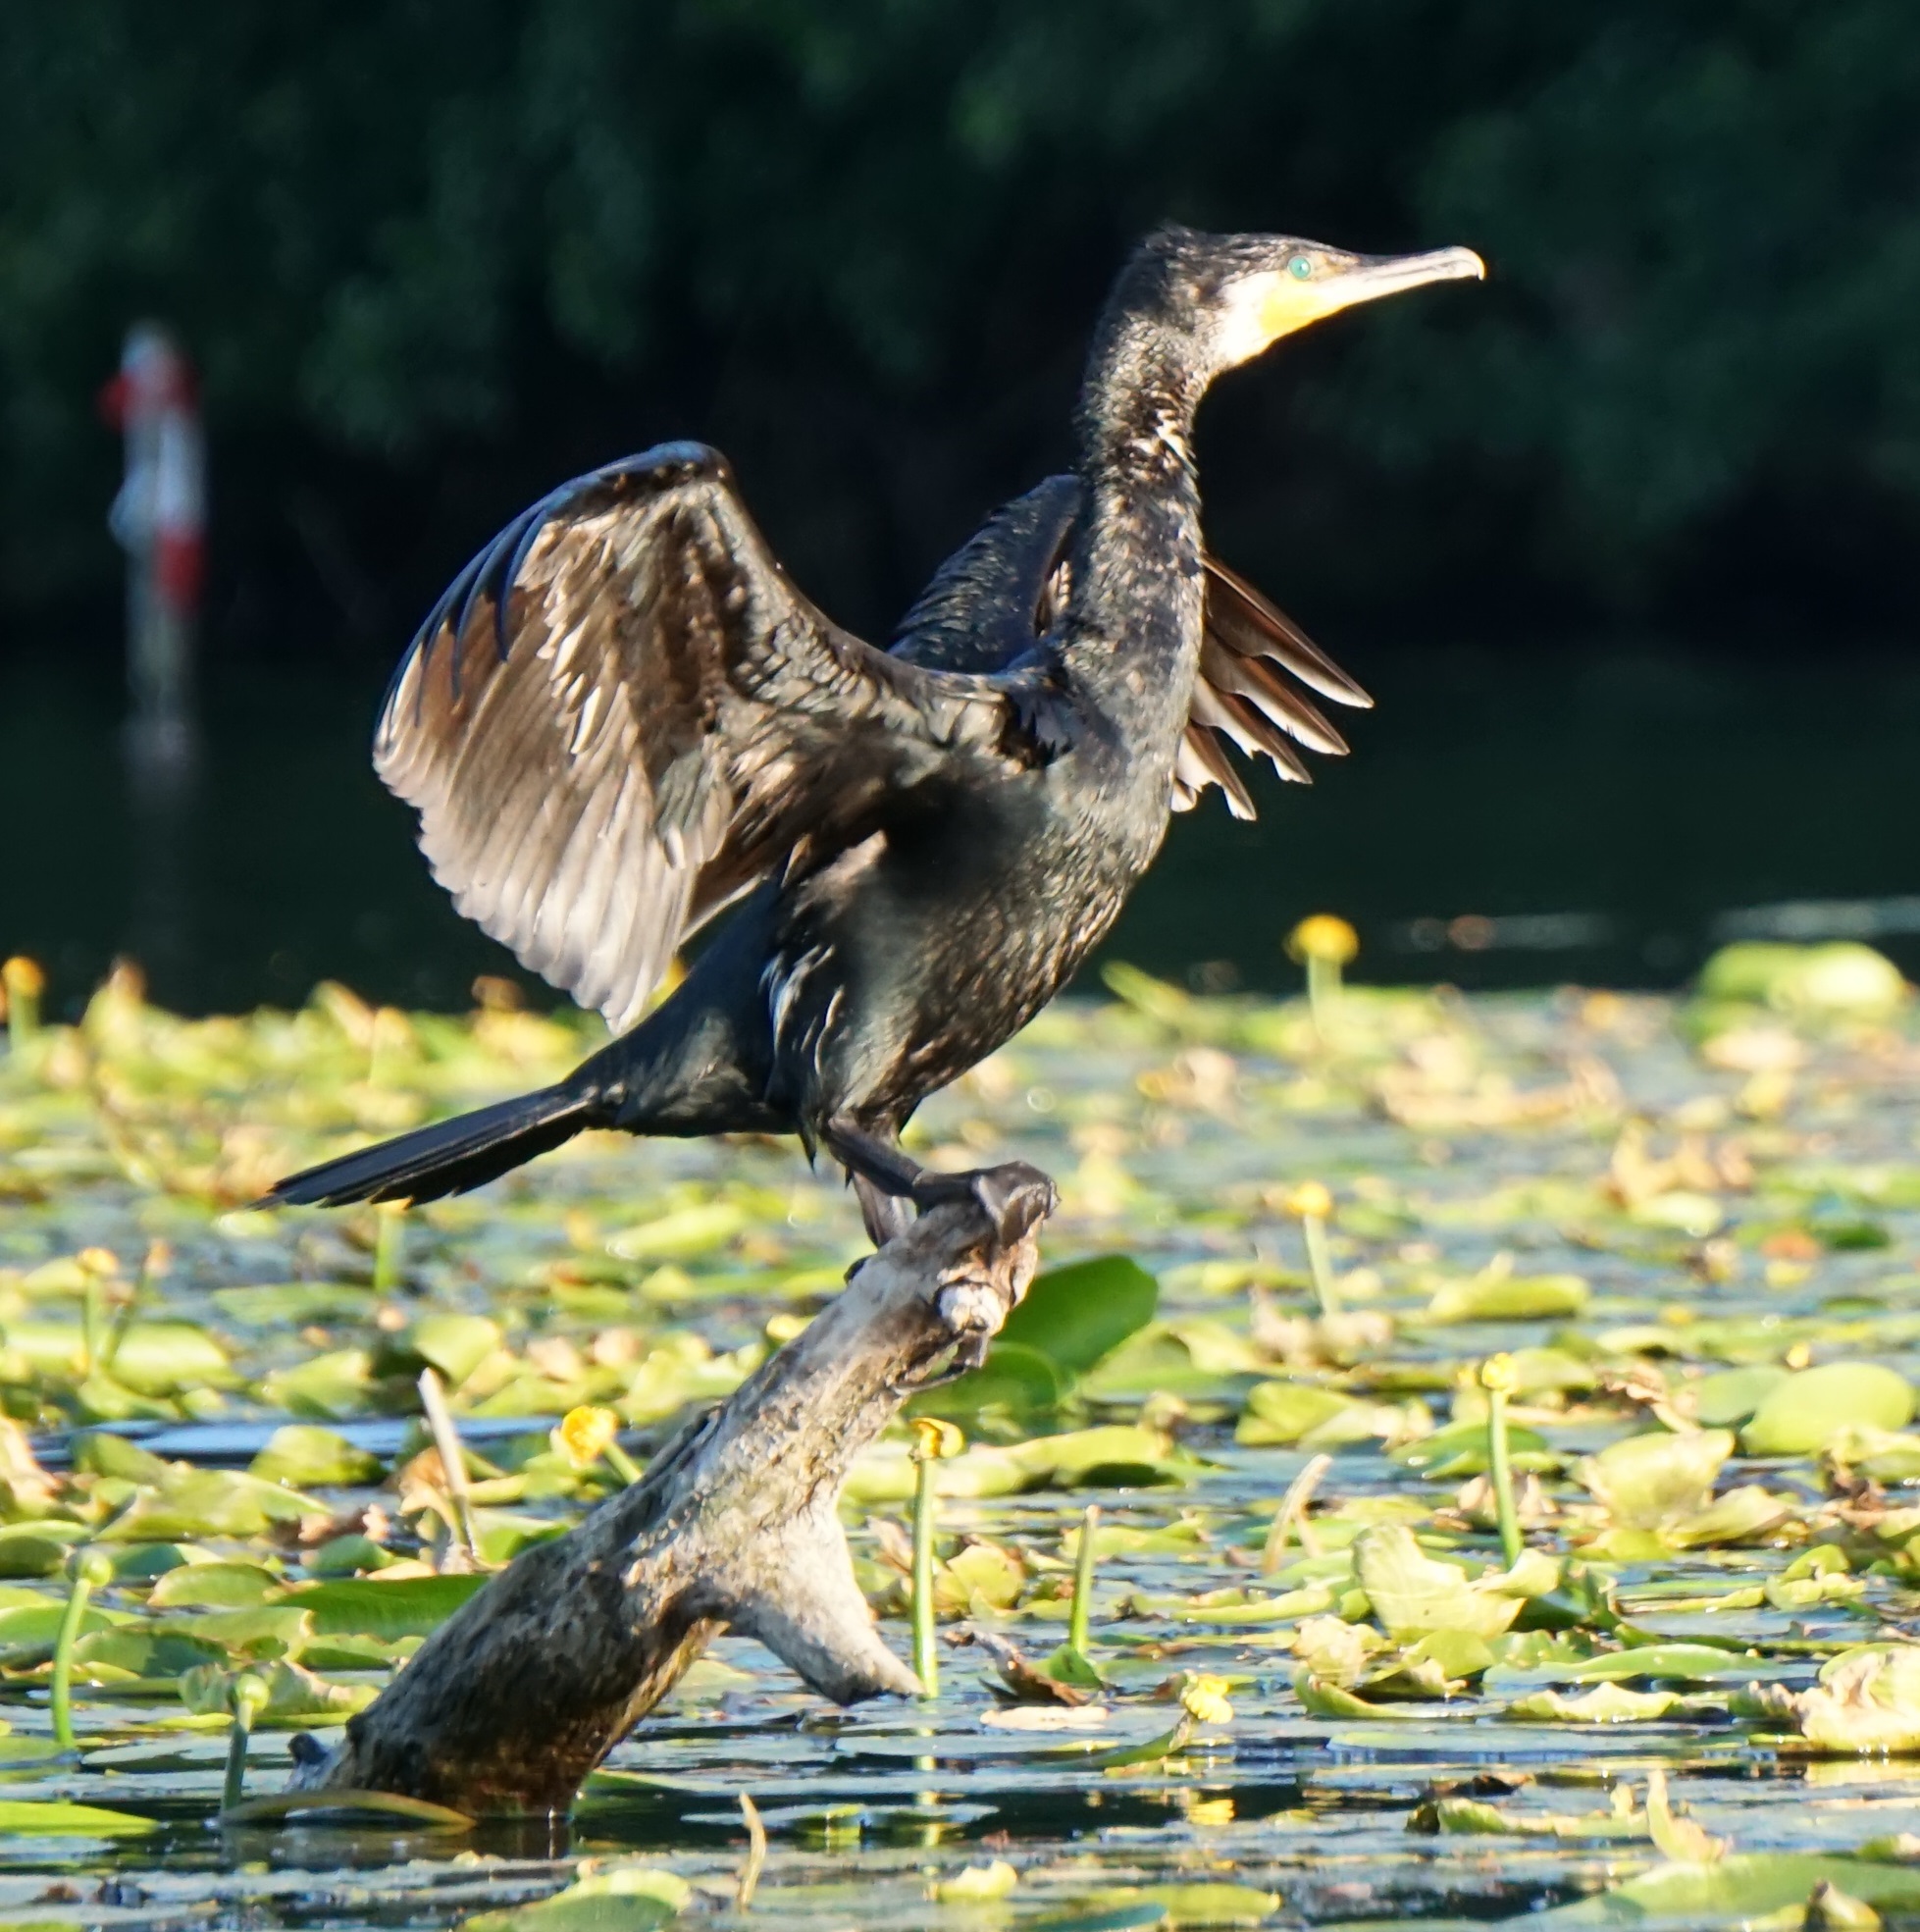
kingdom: Animalia
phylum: Chordata
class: Aves
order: Suliformes
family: Phalacrocoracidae
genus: Phalacrocorax
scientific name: Phalacrocorax carbo
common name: Great cormorant
